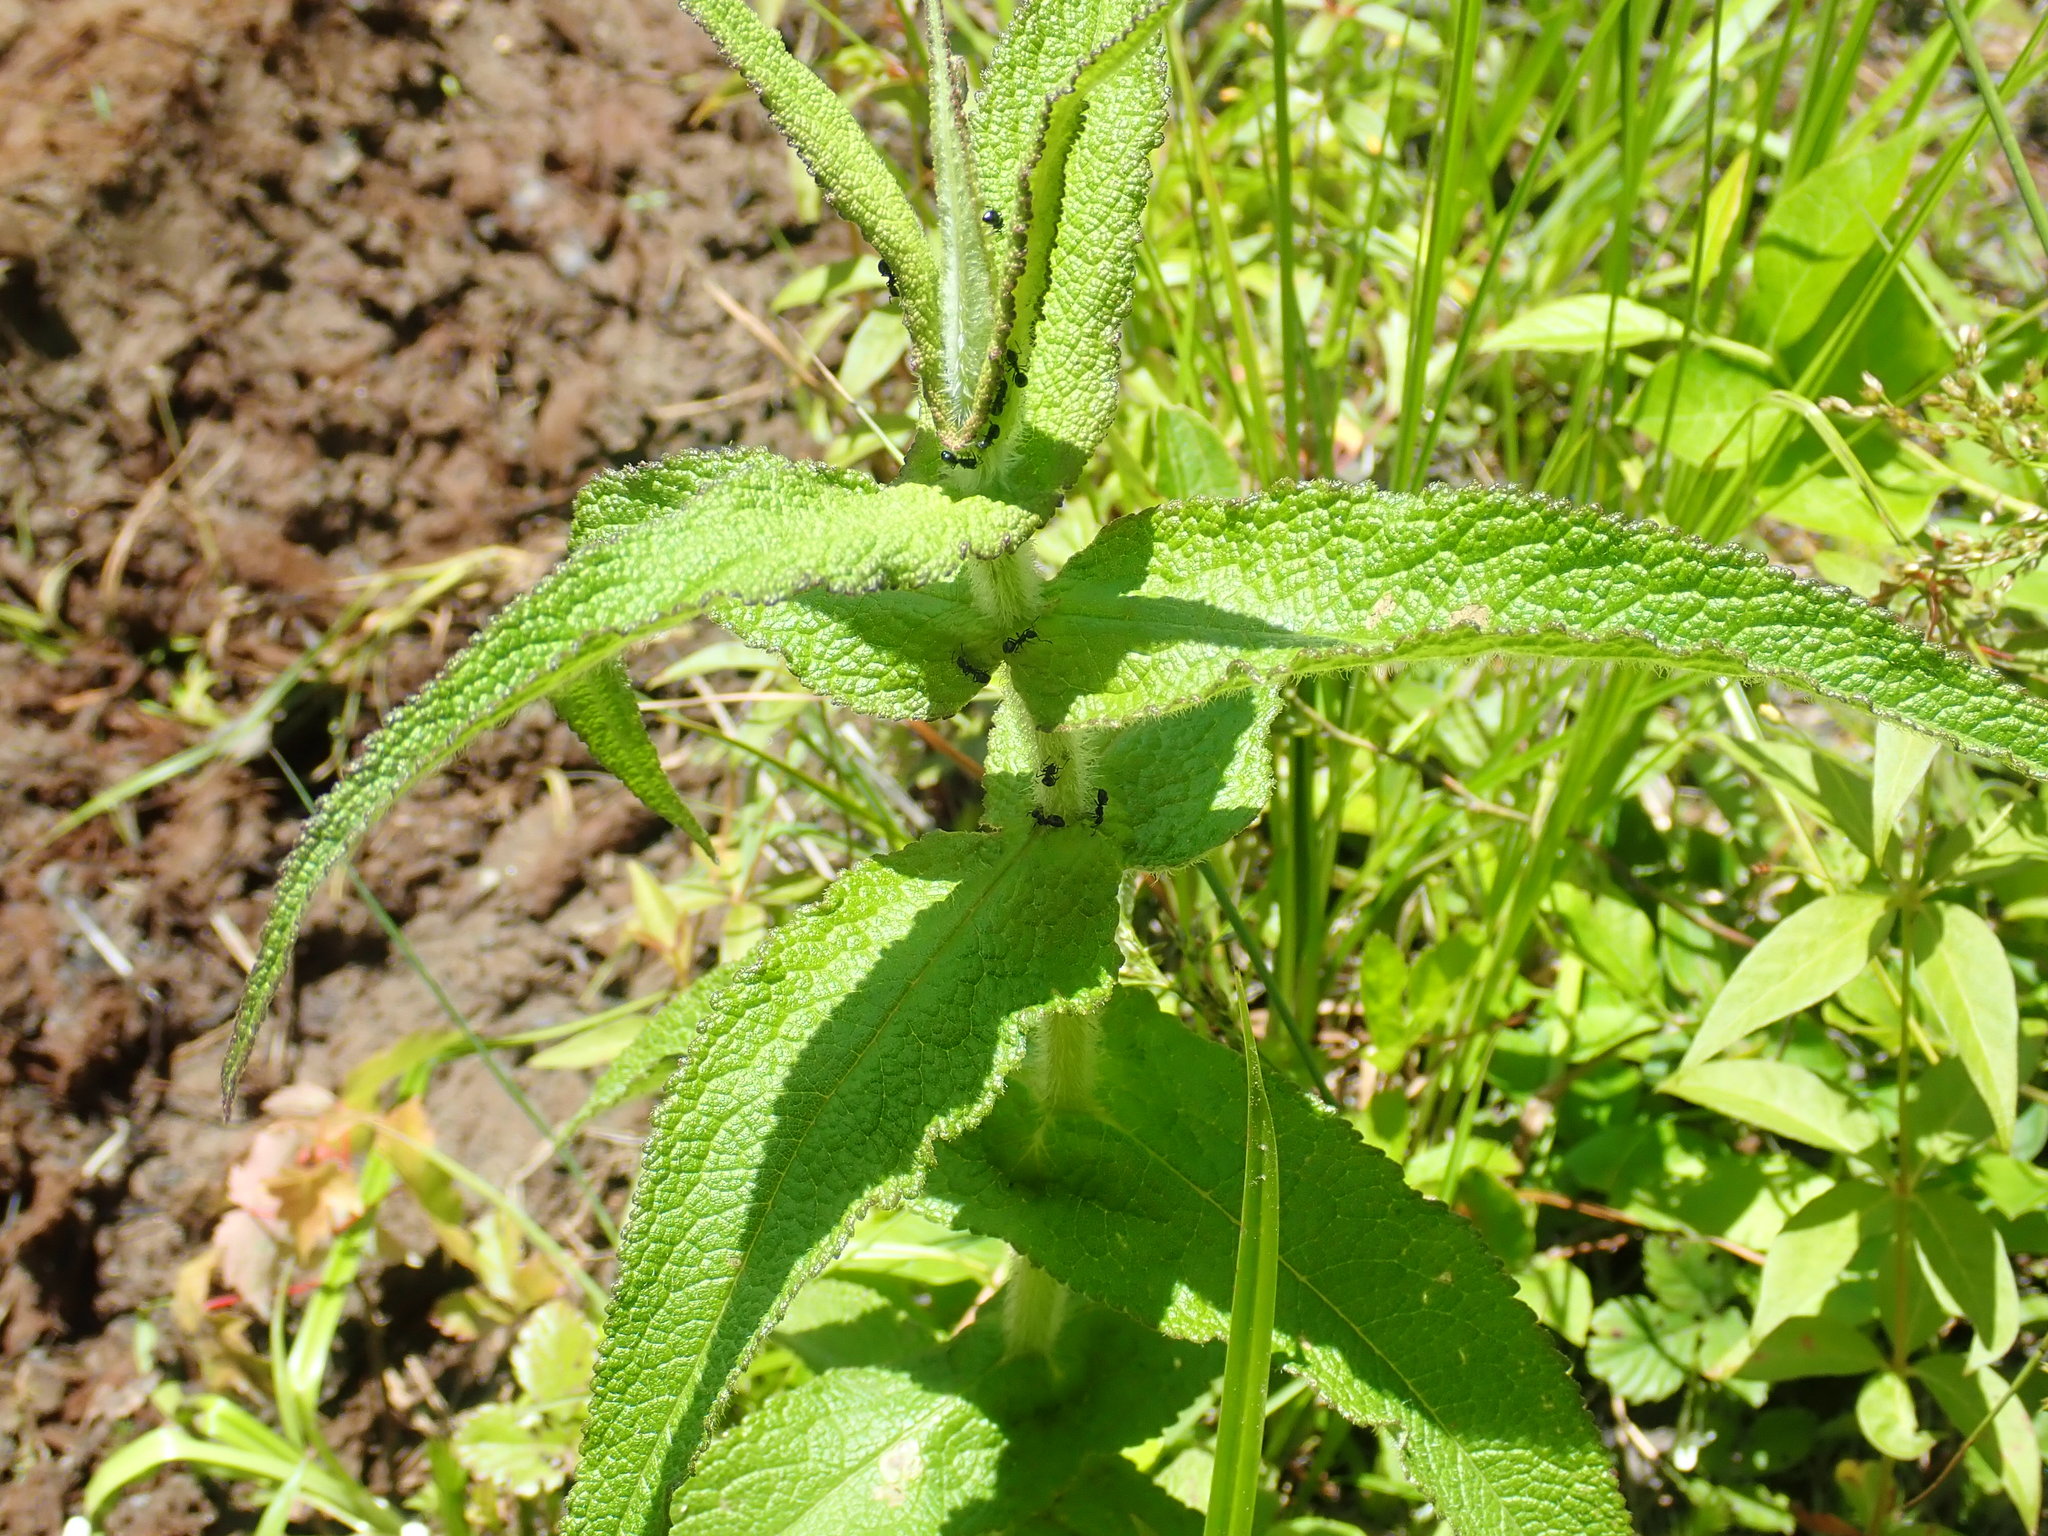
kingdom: Plantae
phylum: Tracheophyta
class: Magnoliopsida
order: Asterales
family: Asteraceae
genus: Eupatorium
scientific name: Eupatorium perfoliatum
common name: Boneset
